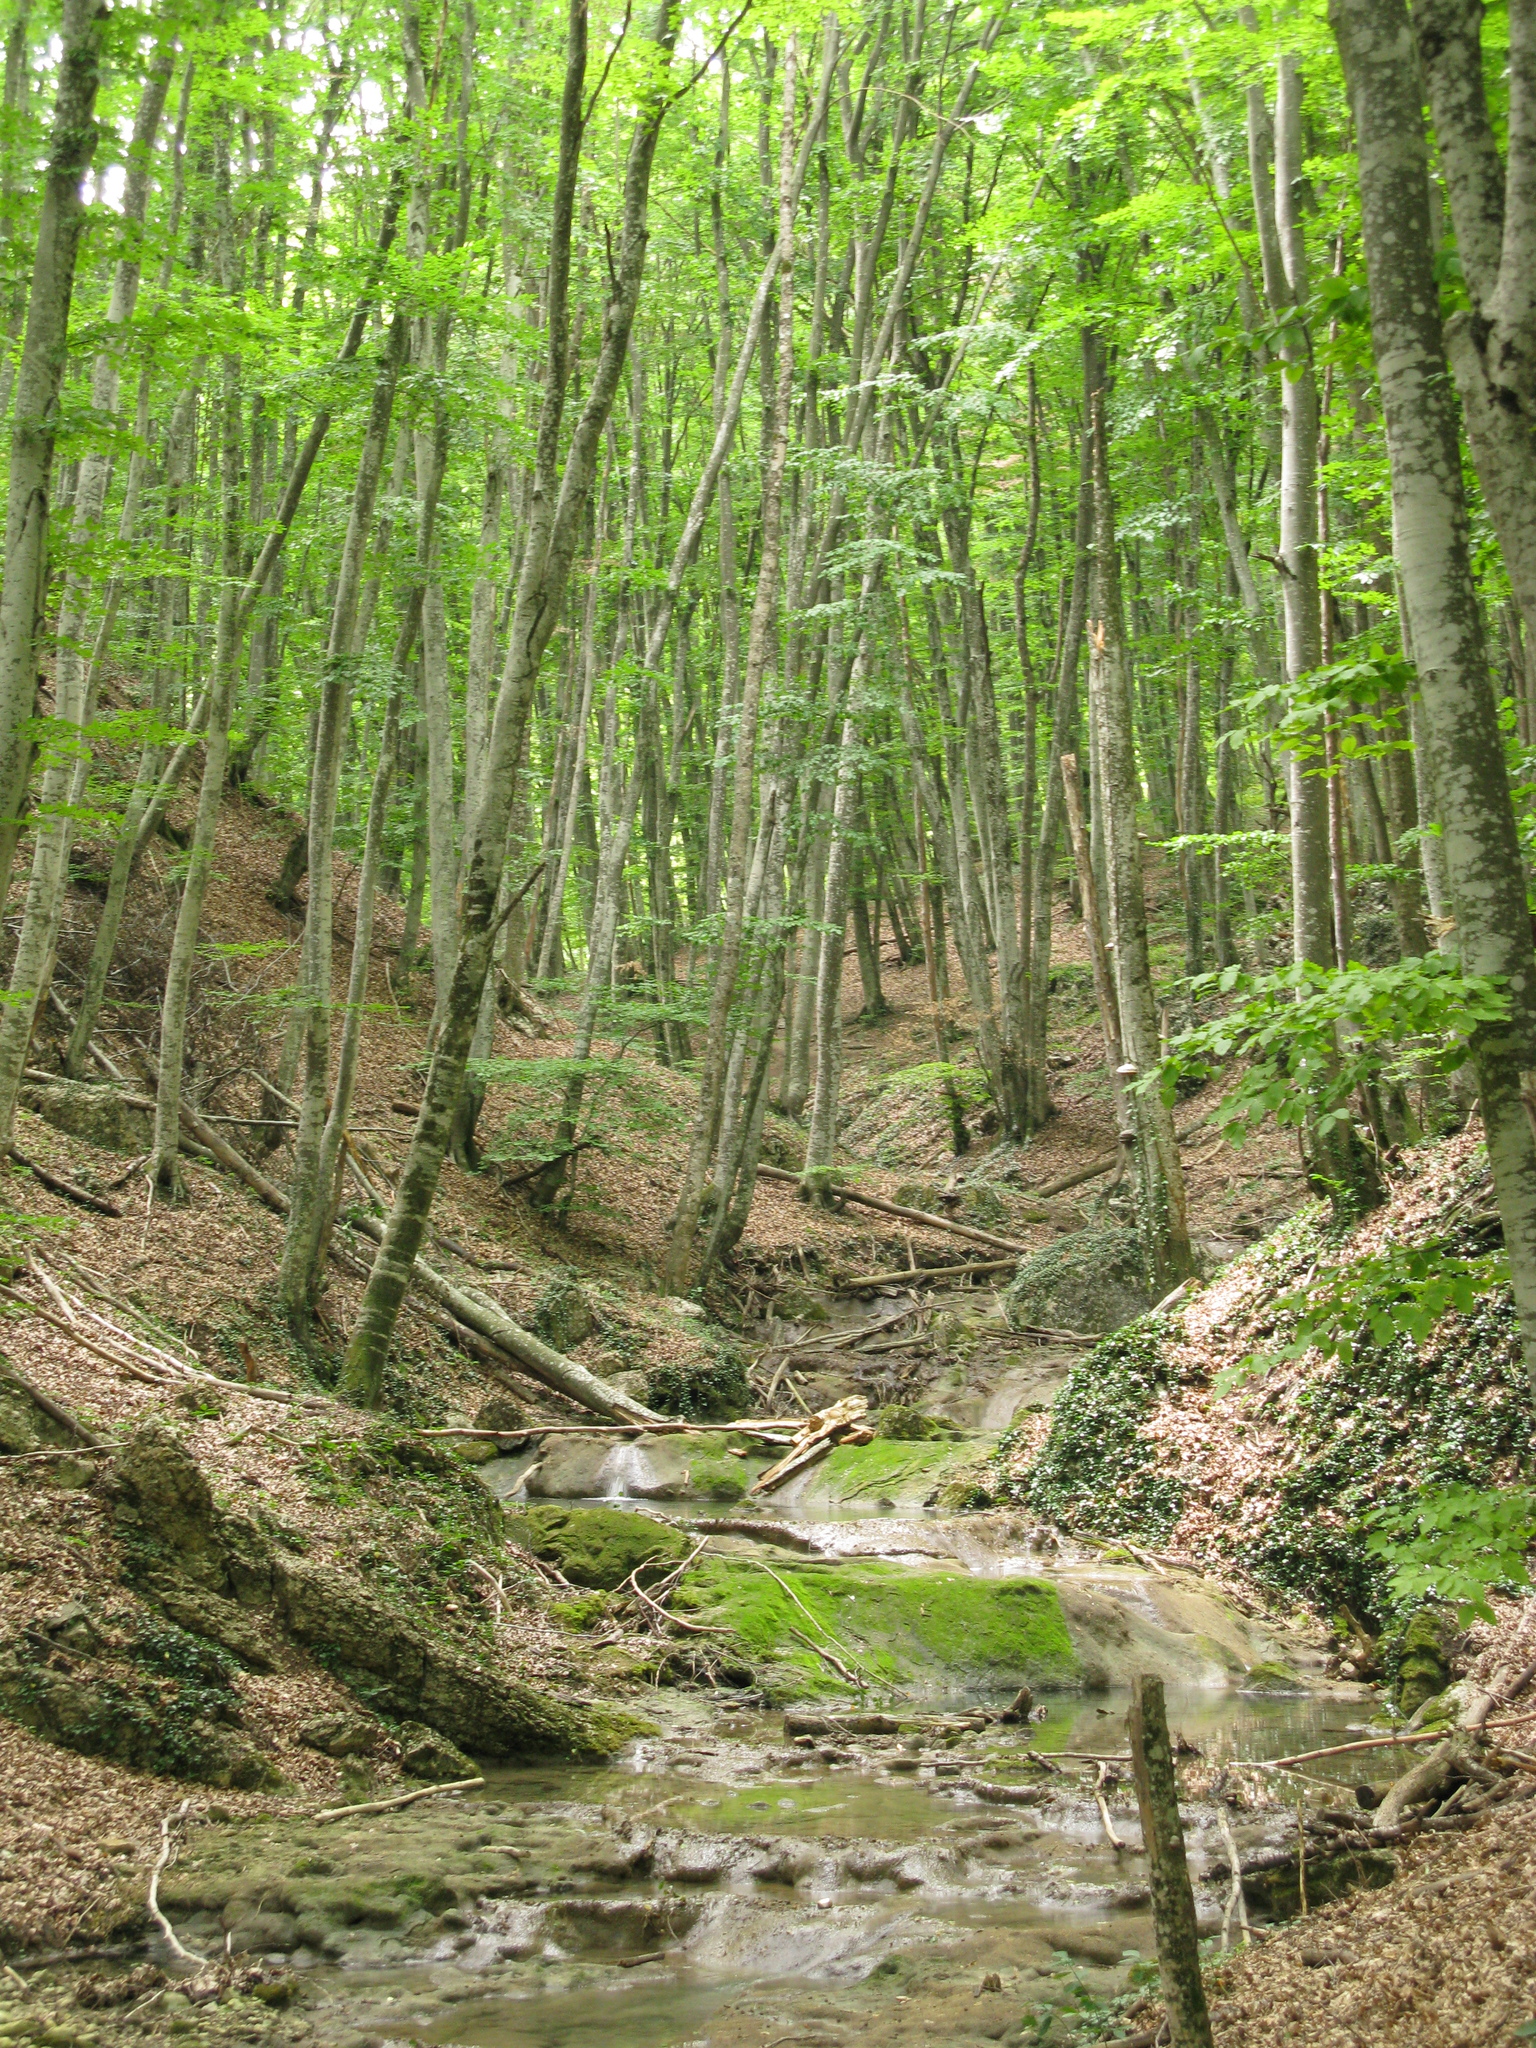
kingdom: Plantae
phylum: Tracheophyta
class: Magnoliopsida
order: Fagales
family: Fagaceae
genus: Fagus
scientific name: Fagus taurica
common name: Crimean beech
